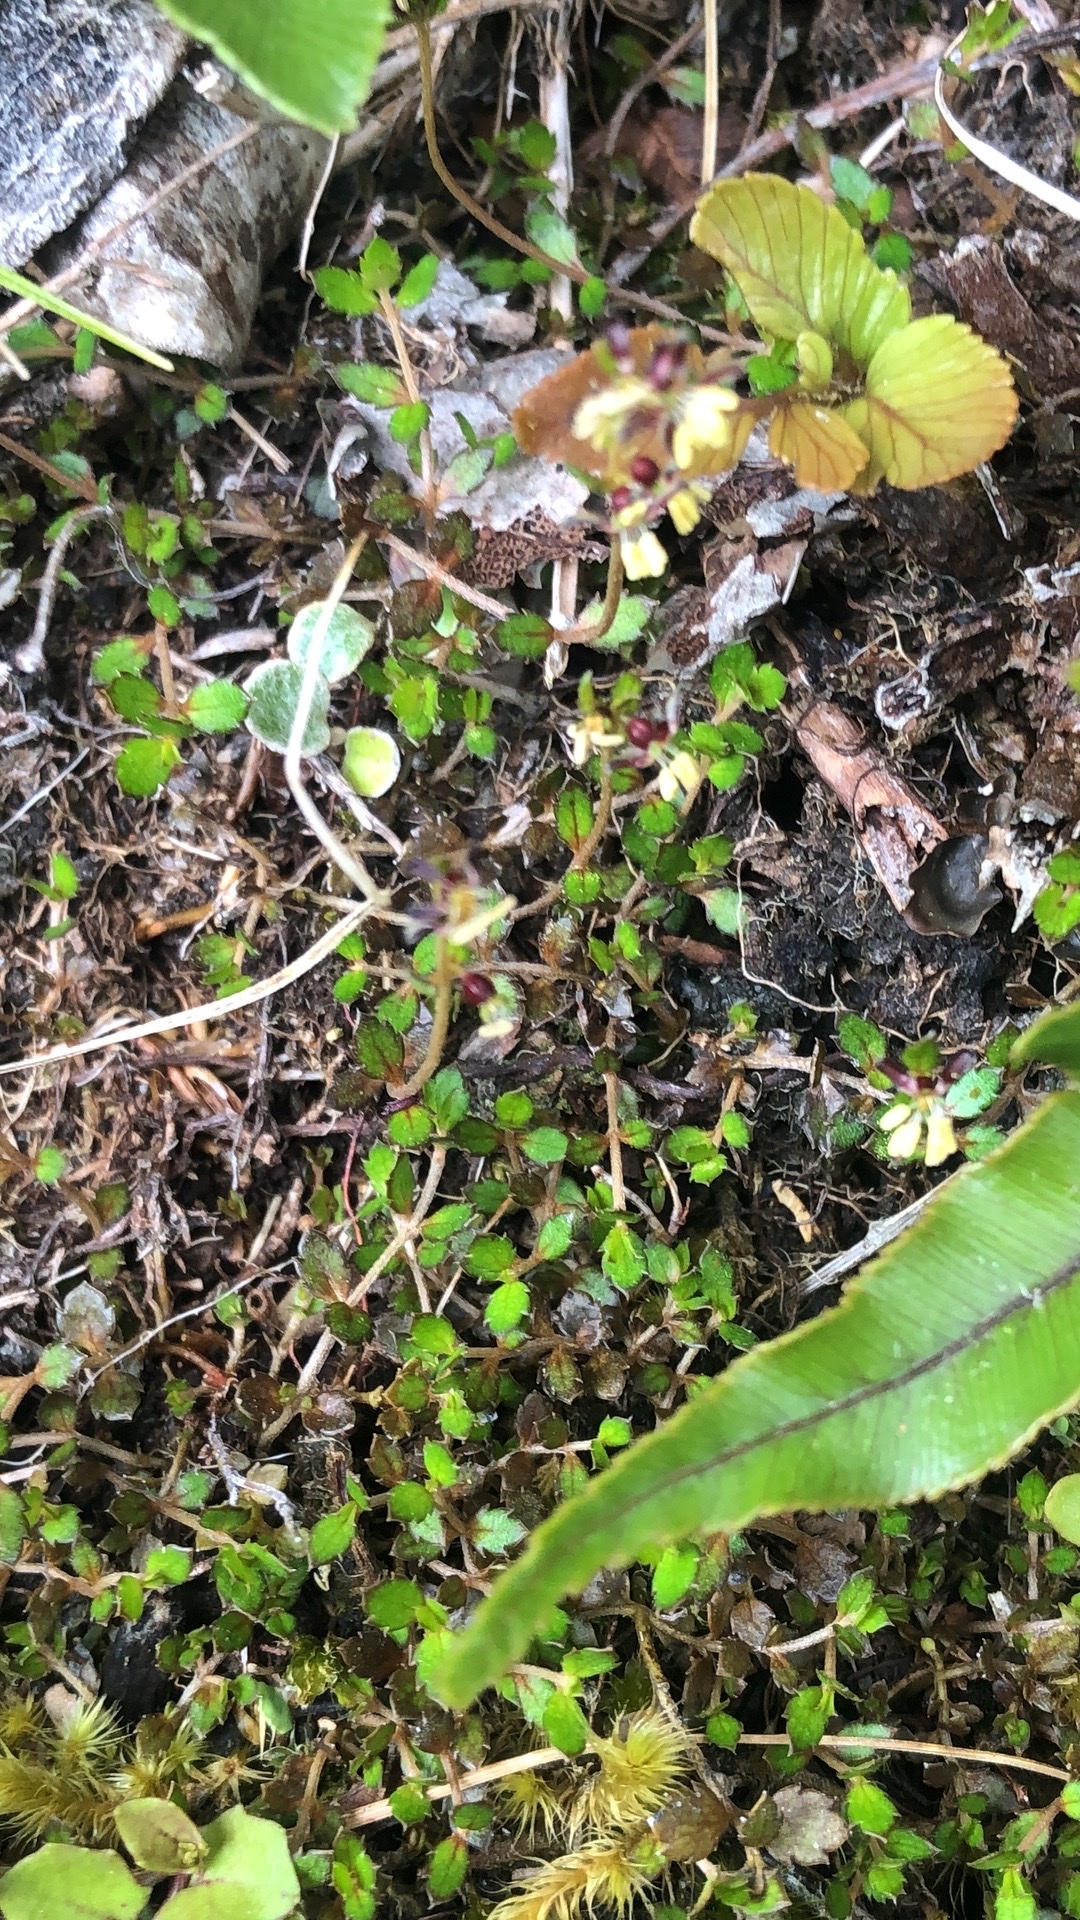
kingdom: Plantae
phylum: Tracheophyta
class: Magnoliopsida
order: Saxifragales
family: Haloragaceae
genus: Gonocarpus
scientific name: Gonocarpus aggregatus
